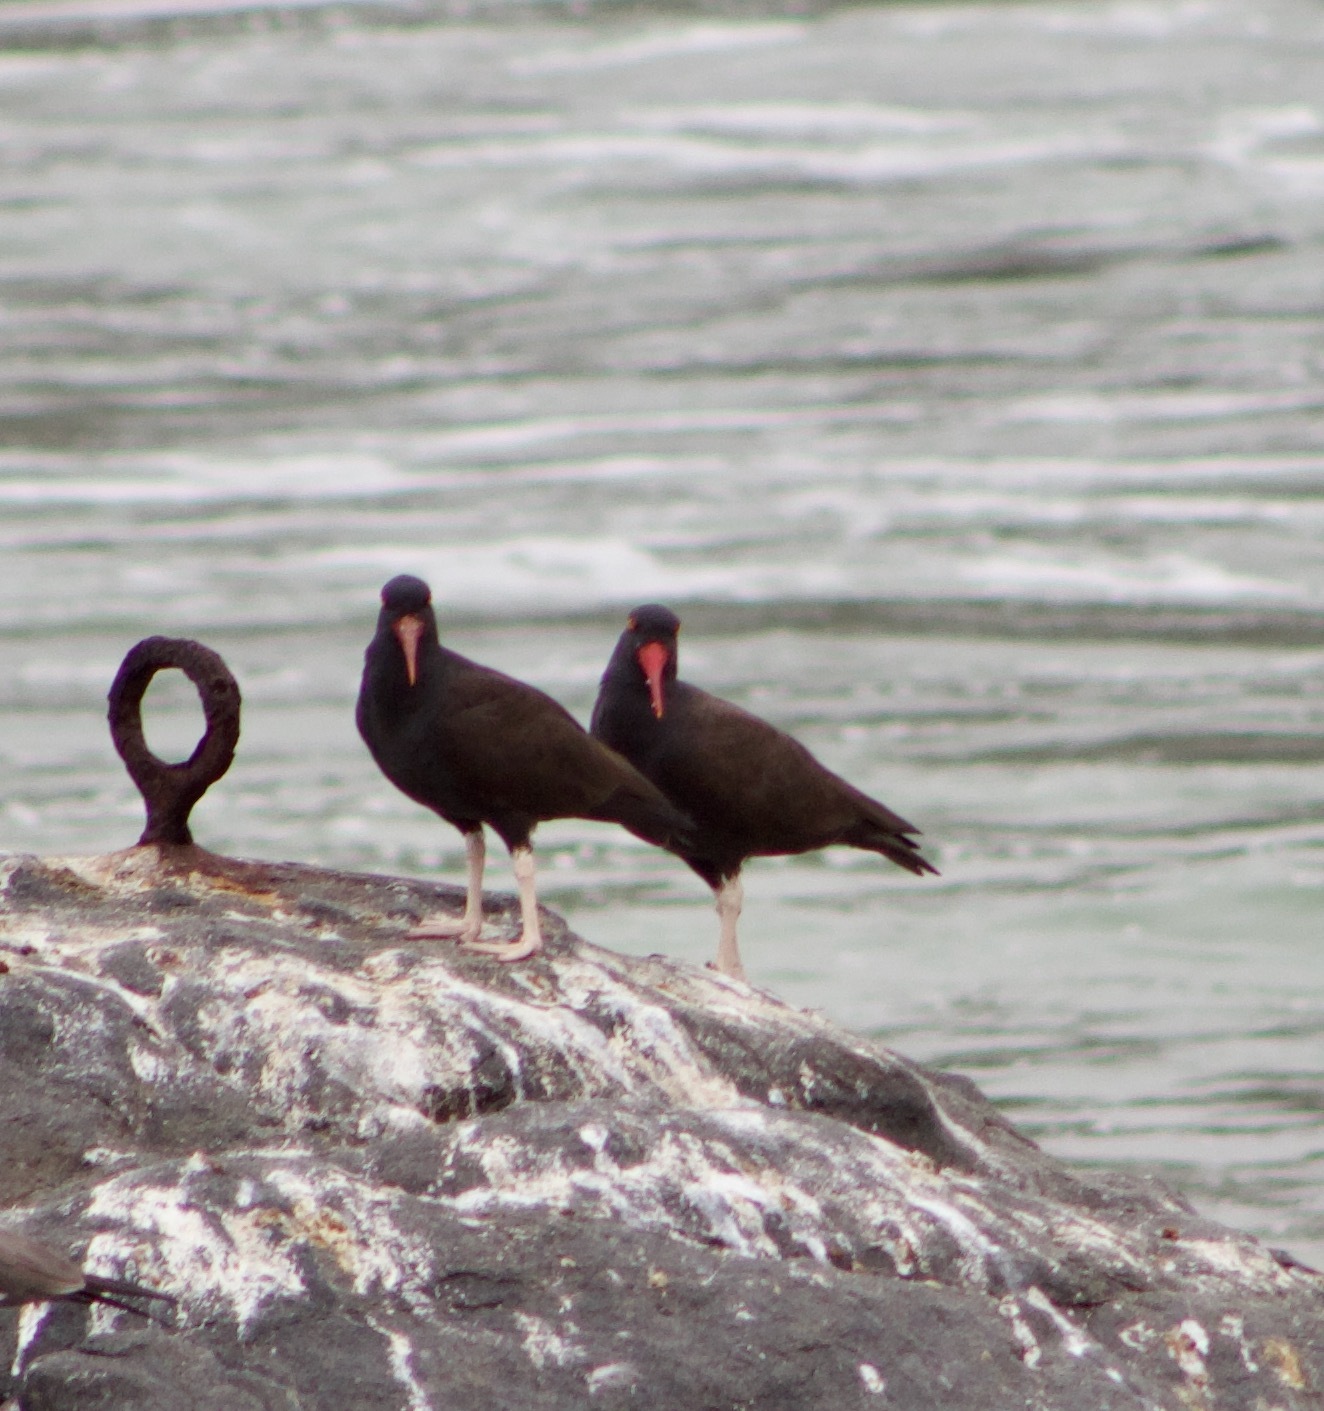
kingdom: Animalia
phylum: Chordata
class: Aves
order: Charadriiformes
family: Haematopodidae
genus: Haematopus
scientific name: Haematopus ater
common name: Blackish oystercatcher
